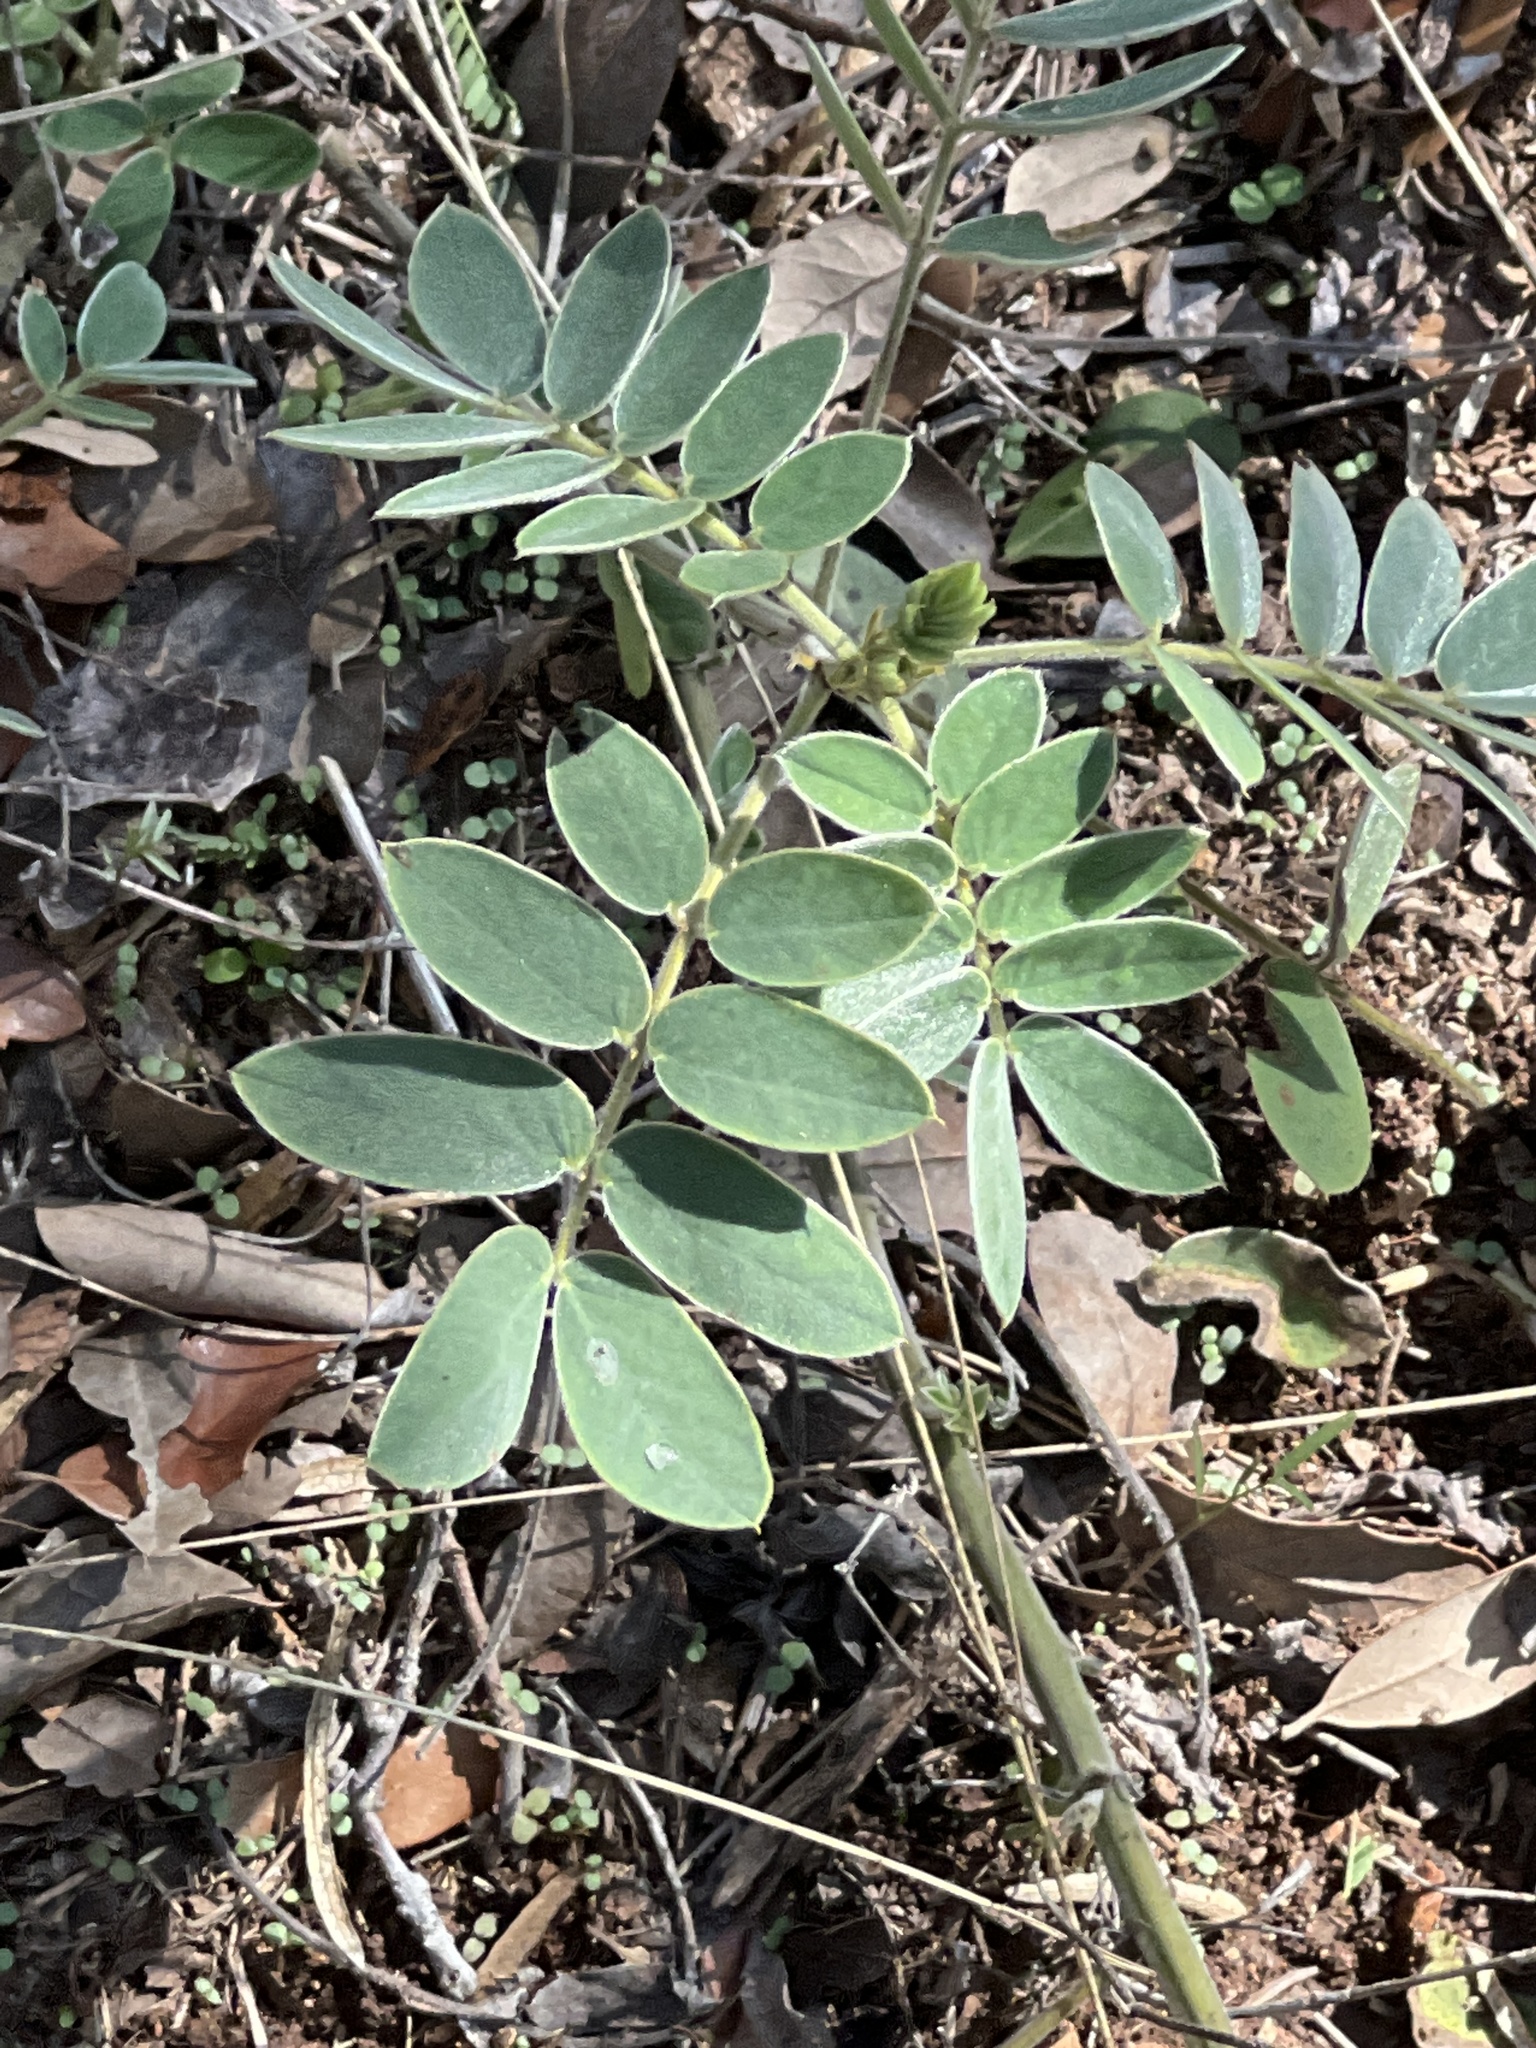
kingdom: Plantae
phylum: Tracheophyta
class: Magnoliopsida
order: Fabales
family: Fabaceae
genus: Senna
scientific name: Senna lindheimeriana
